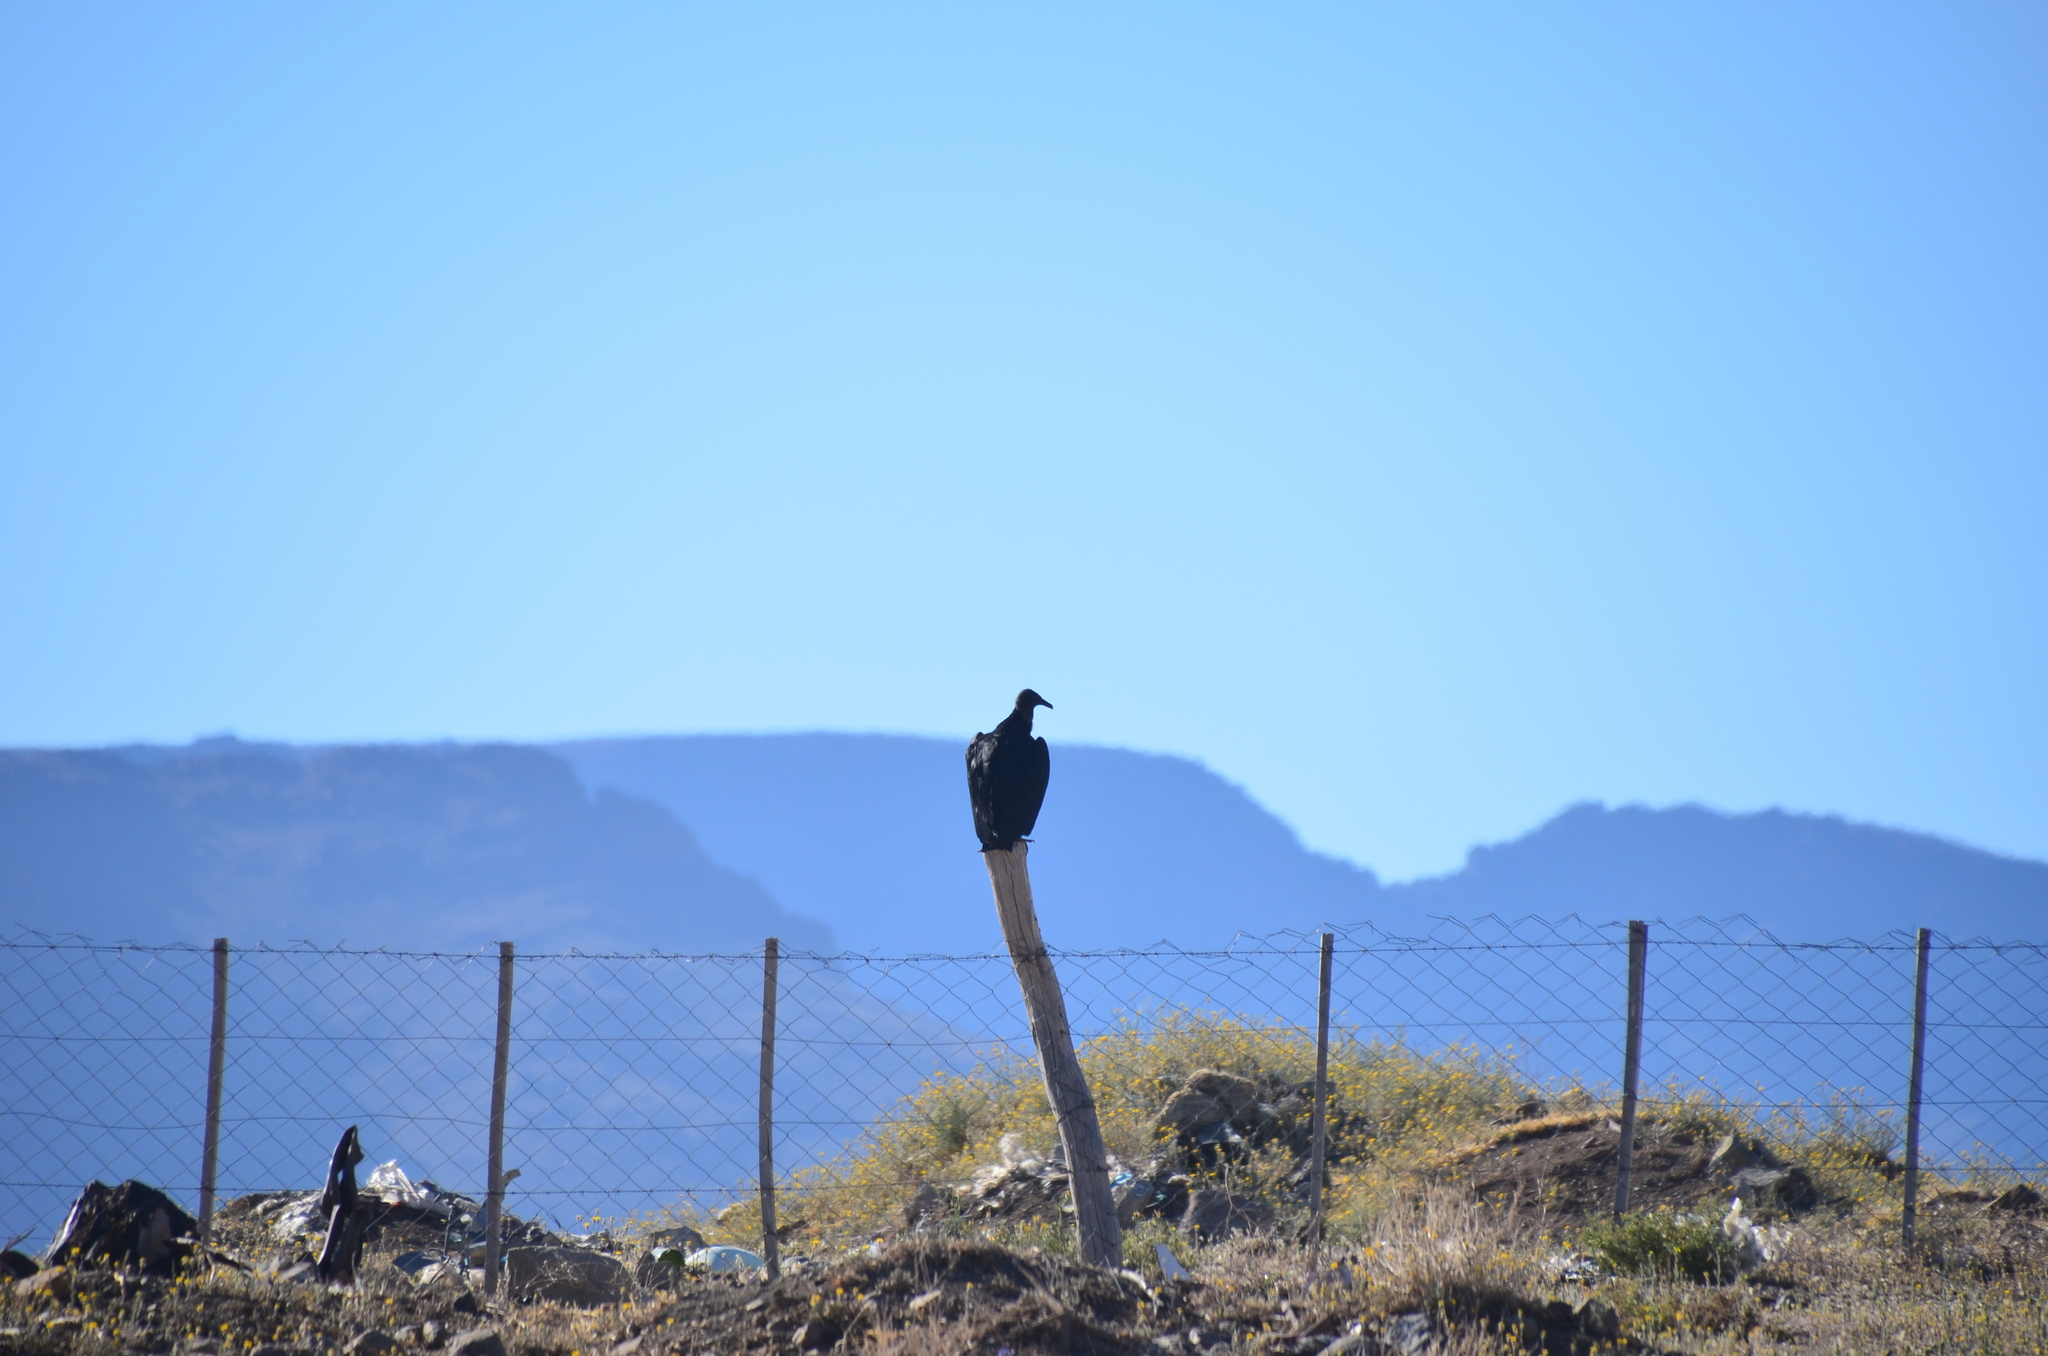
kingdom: Animalia
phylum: Chordata
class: Aves
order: Accipitriformes
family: Cathartidae
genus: Coragyps
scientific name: Coragyps atratus
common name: Black vulture
